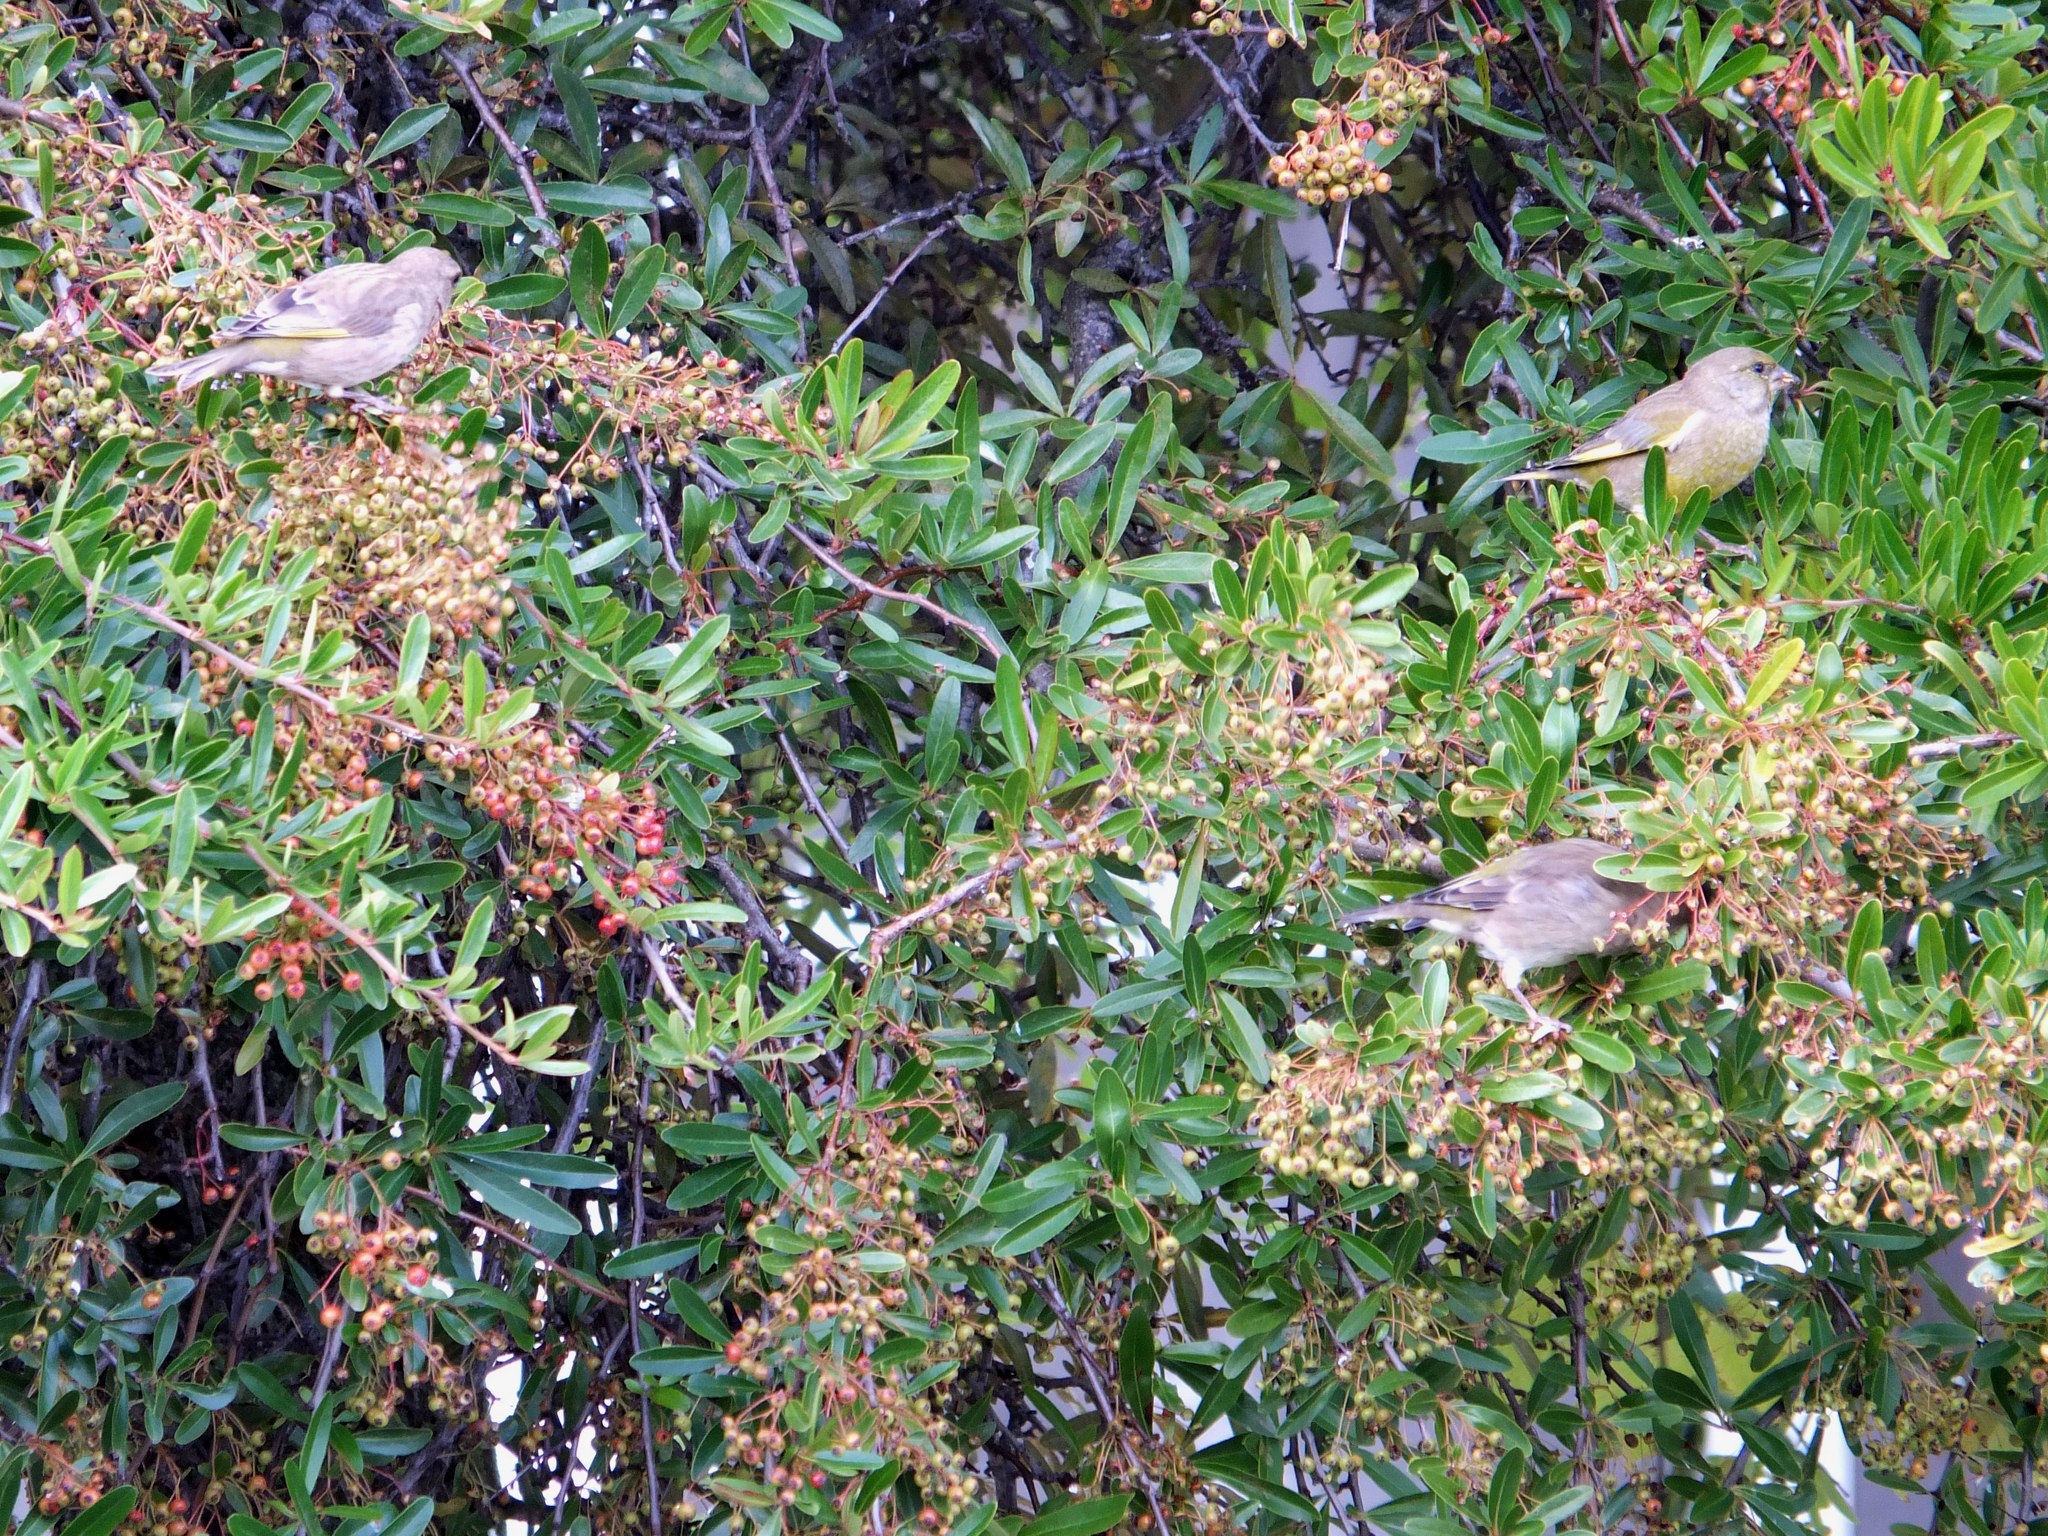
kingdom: Plantae
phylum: Tracheophyta
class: Liliopsida
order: Poales
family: Poaceae
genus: Chloris
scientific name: Chloris chloris
